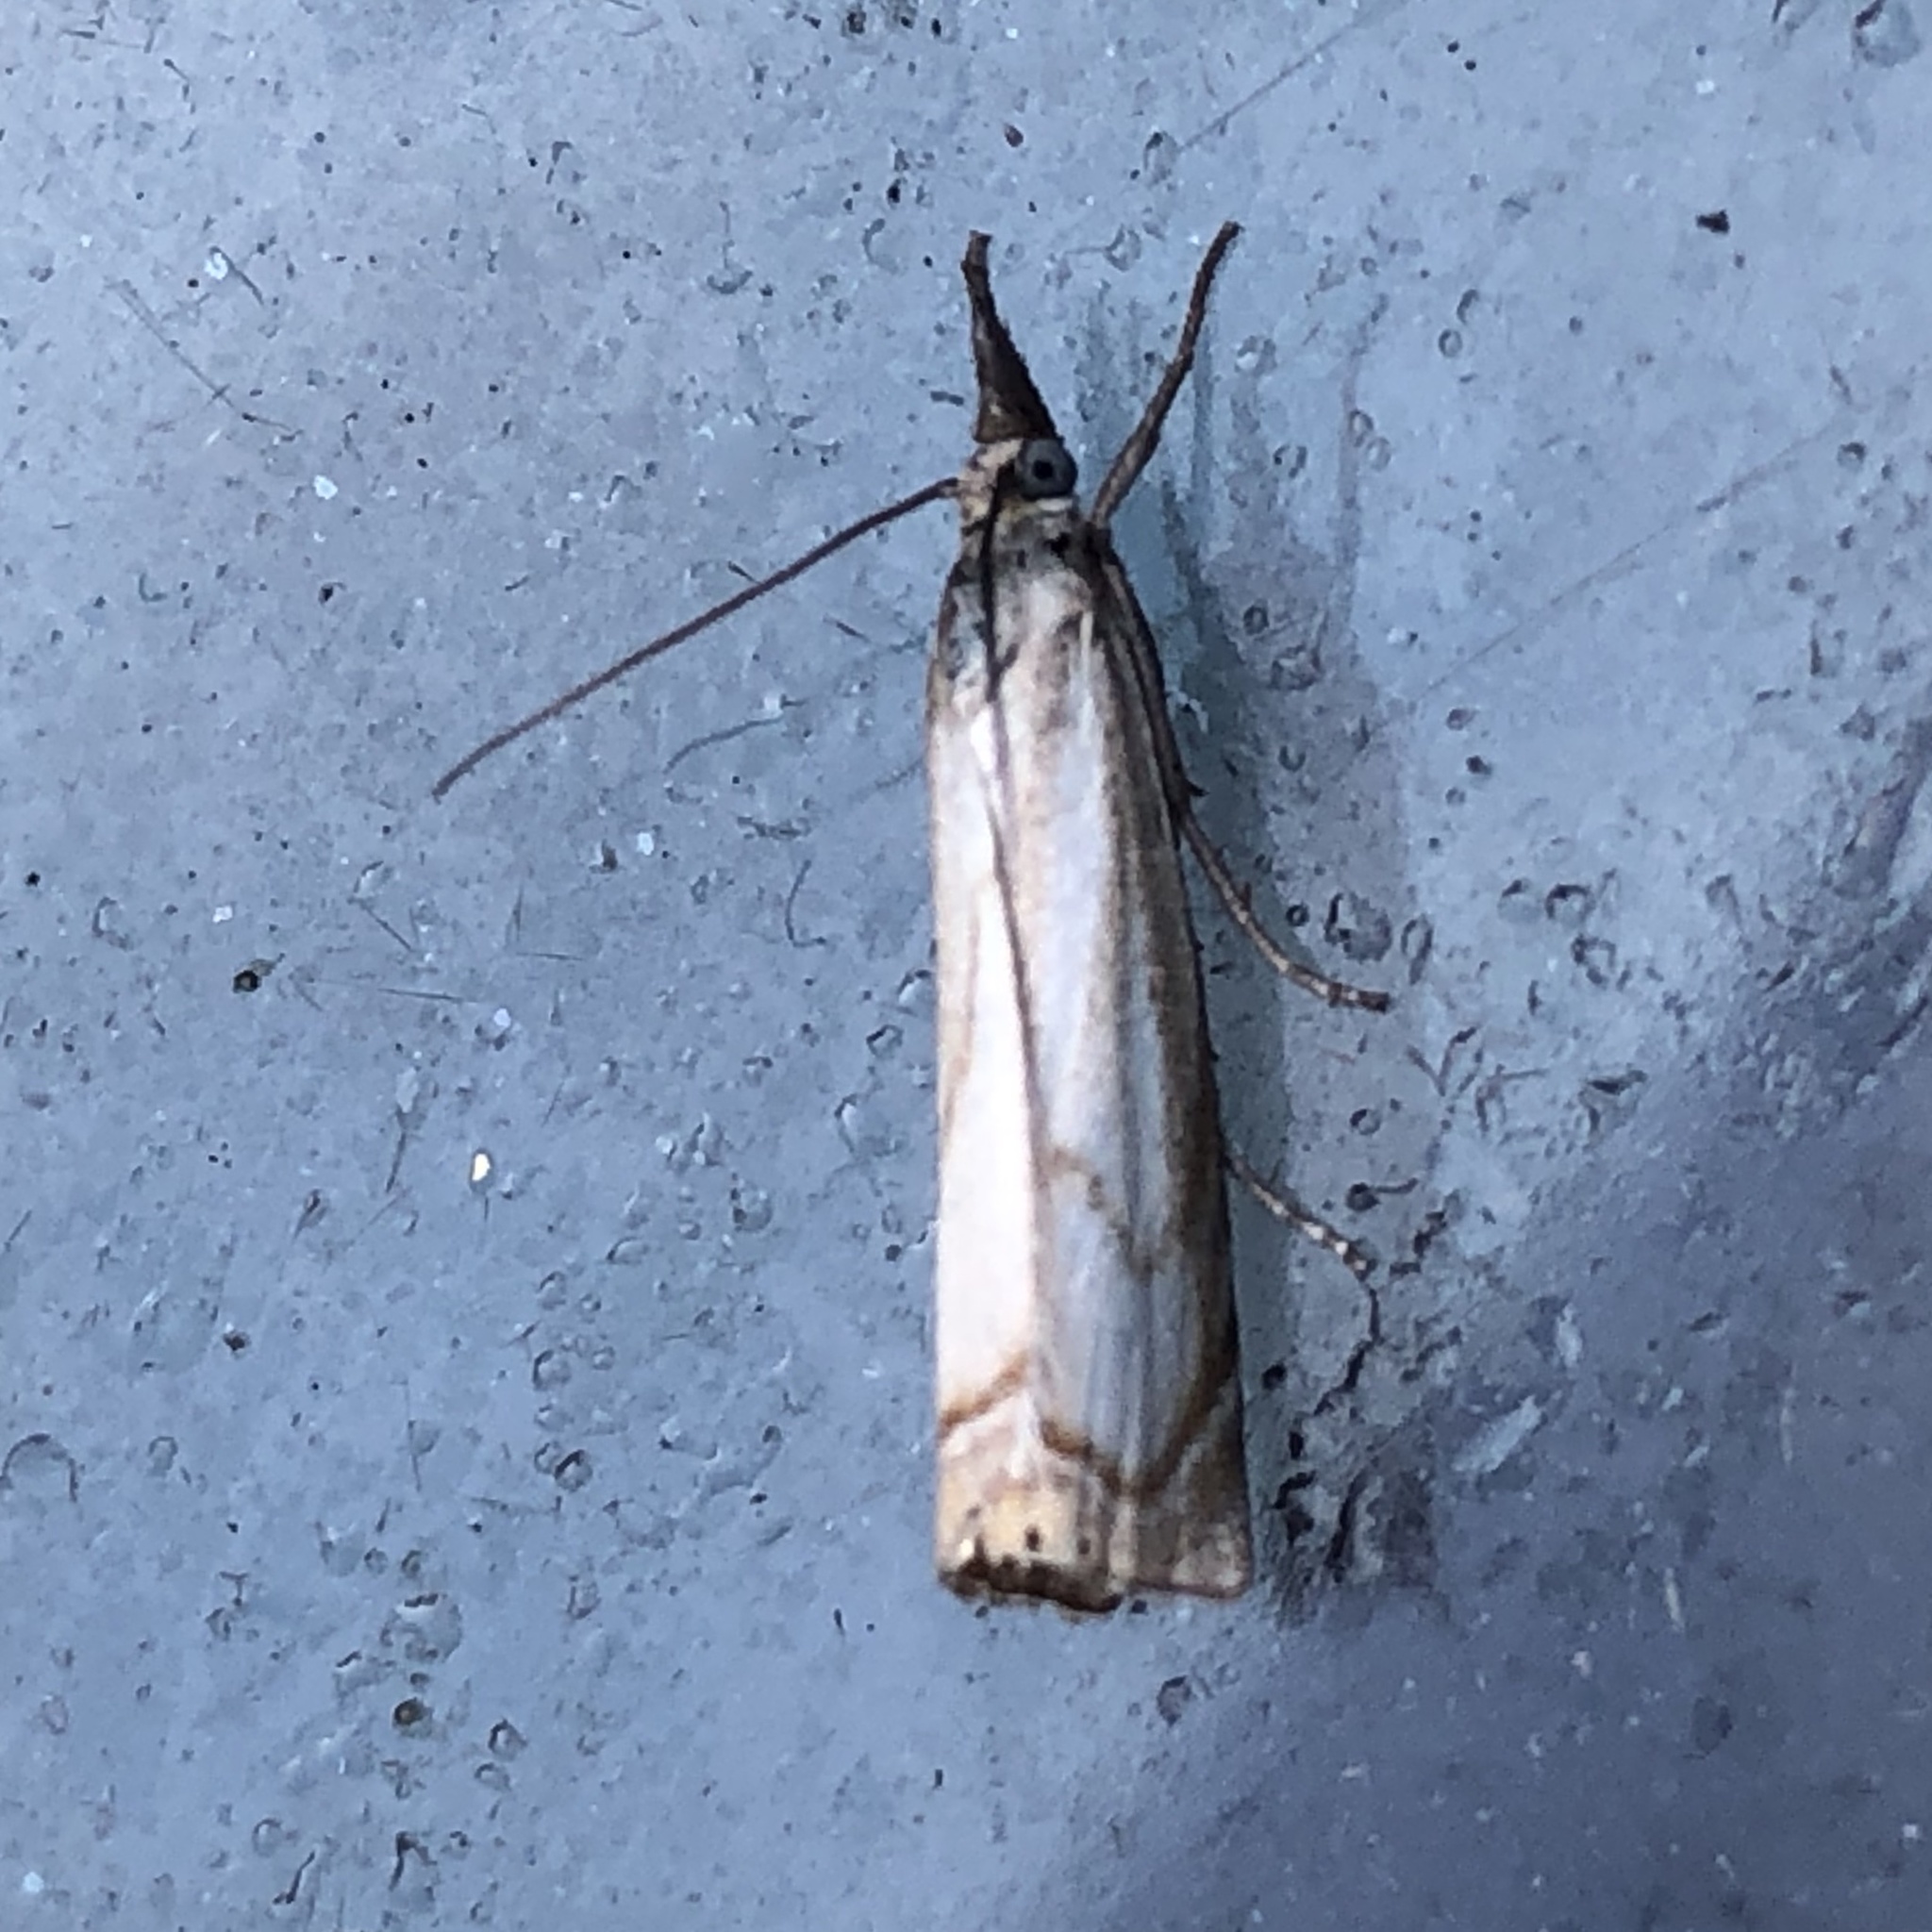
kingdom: Animalia
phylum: Arthropoda
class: Insecta
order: Lepidoptera
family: Crambidae
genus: Chrysoteuchia
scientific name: Chrysoteuchia culmella
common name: Garden grass-veneer
